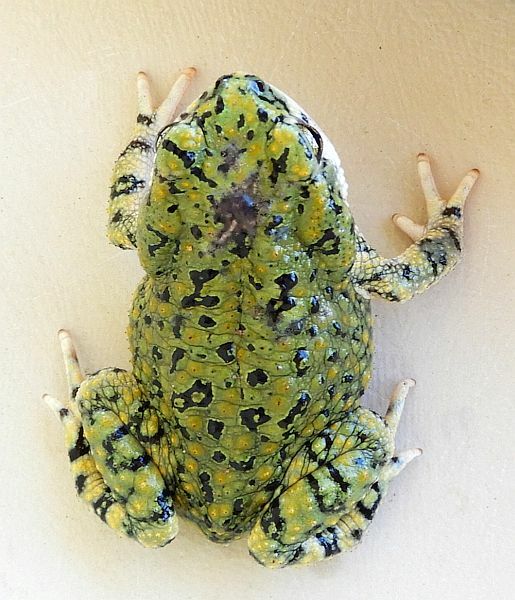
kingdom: Animalia
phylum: Chordata
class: Amphibia
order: Anura
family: Bufonidae
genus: Anaxyrus
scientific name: Anaxyrus debilis
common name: Green toad
